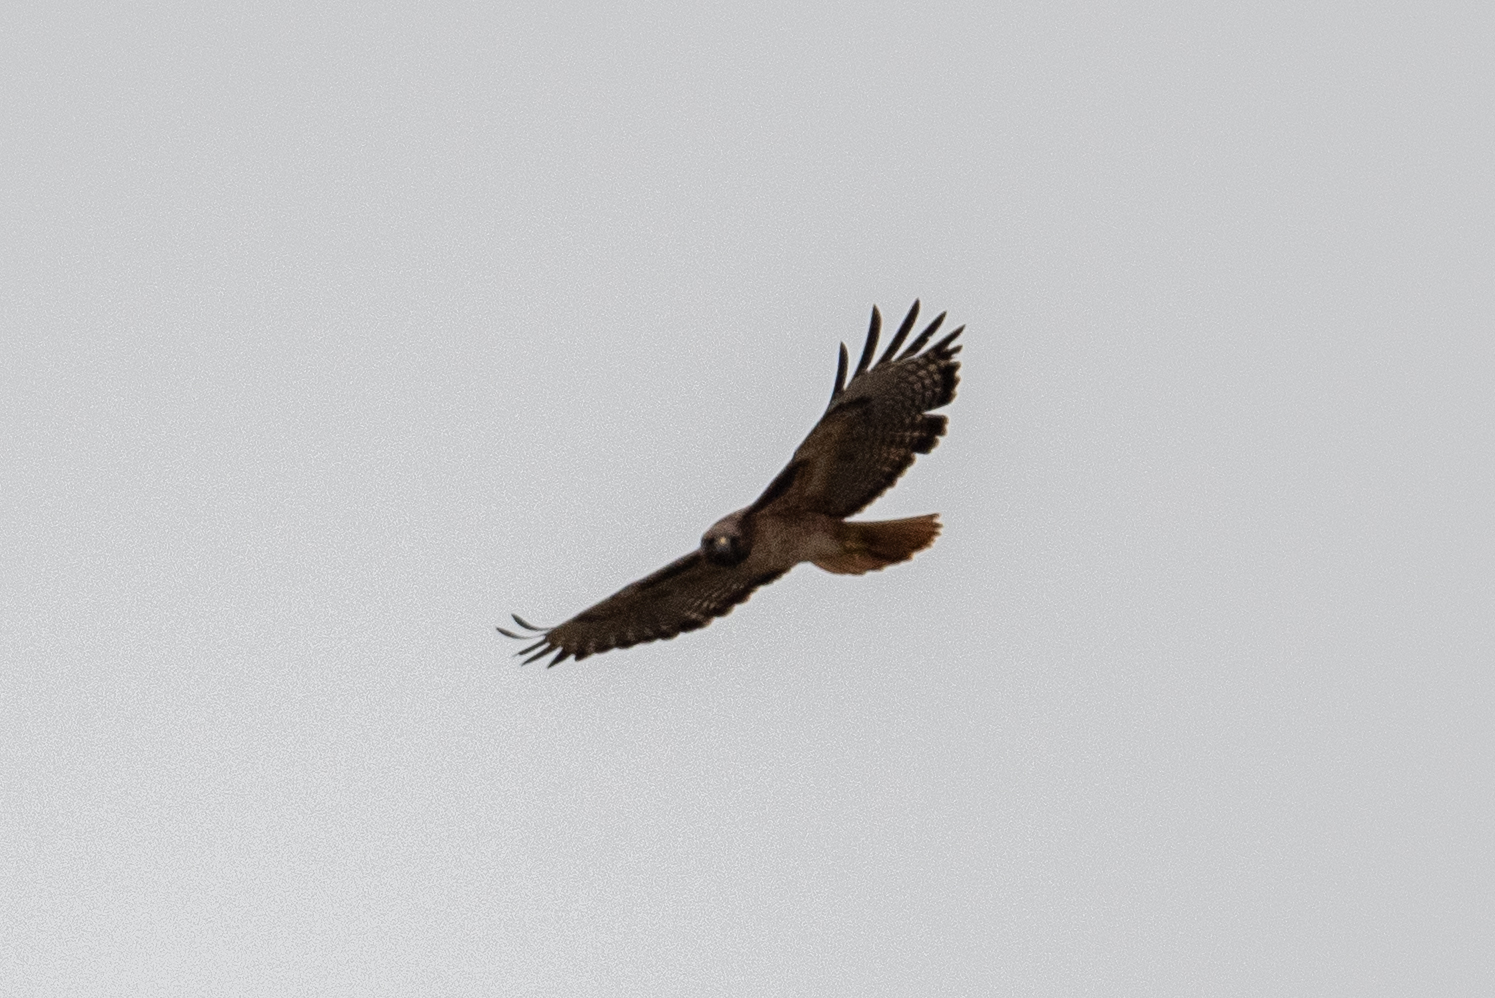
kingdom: Animalia
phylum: Chordata
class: Aves
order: Accipitriformes
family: Accipitridae
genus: Buteo
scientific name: Buteo jamaicensis
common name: Red-tailed hawk
